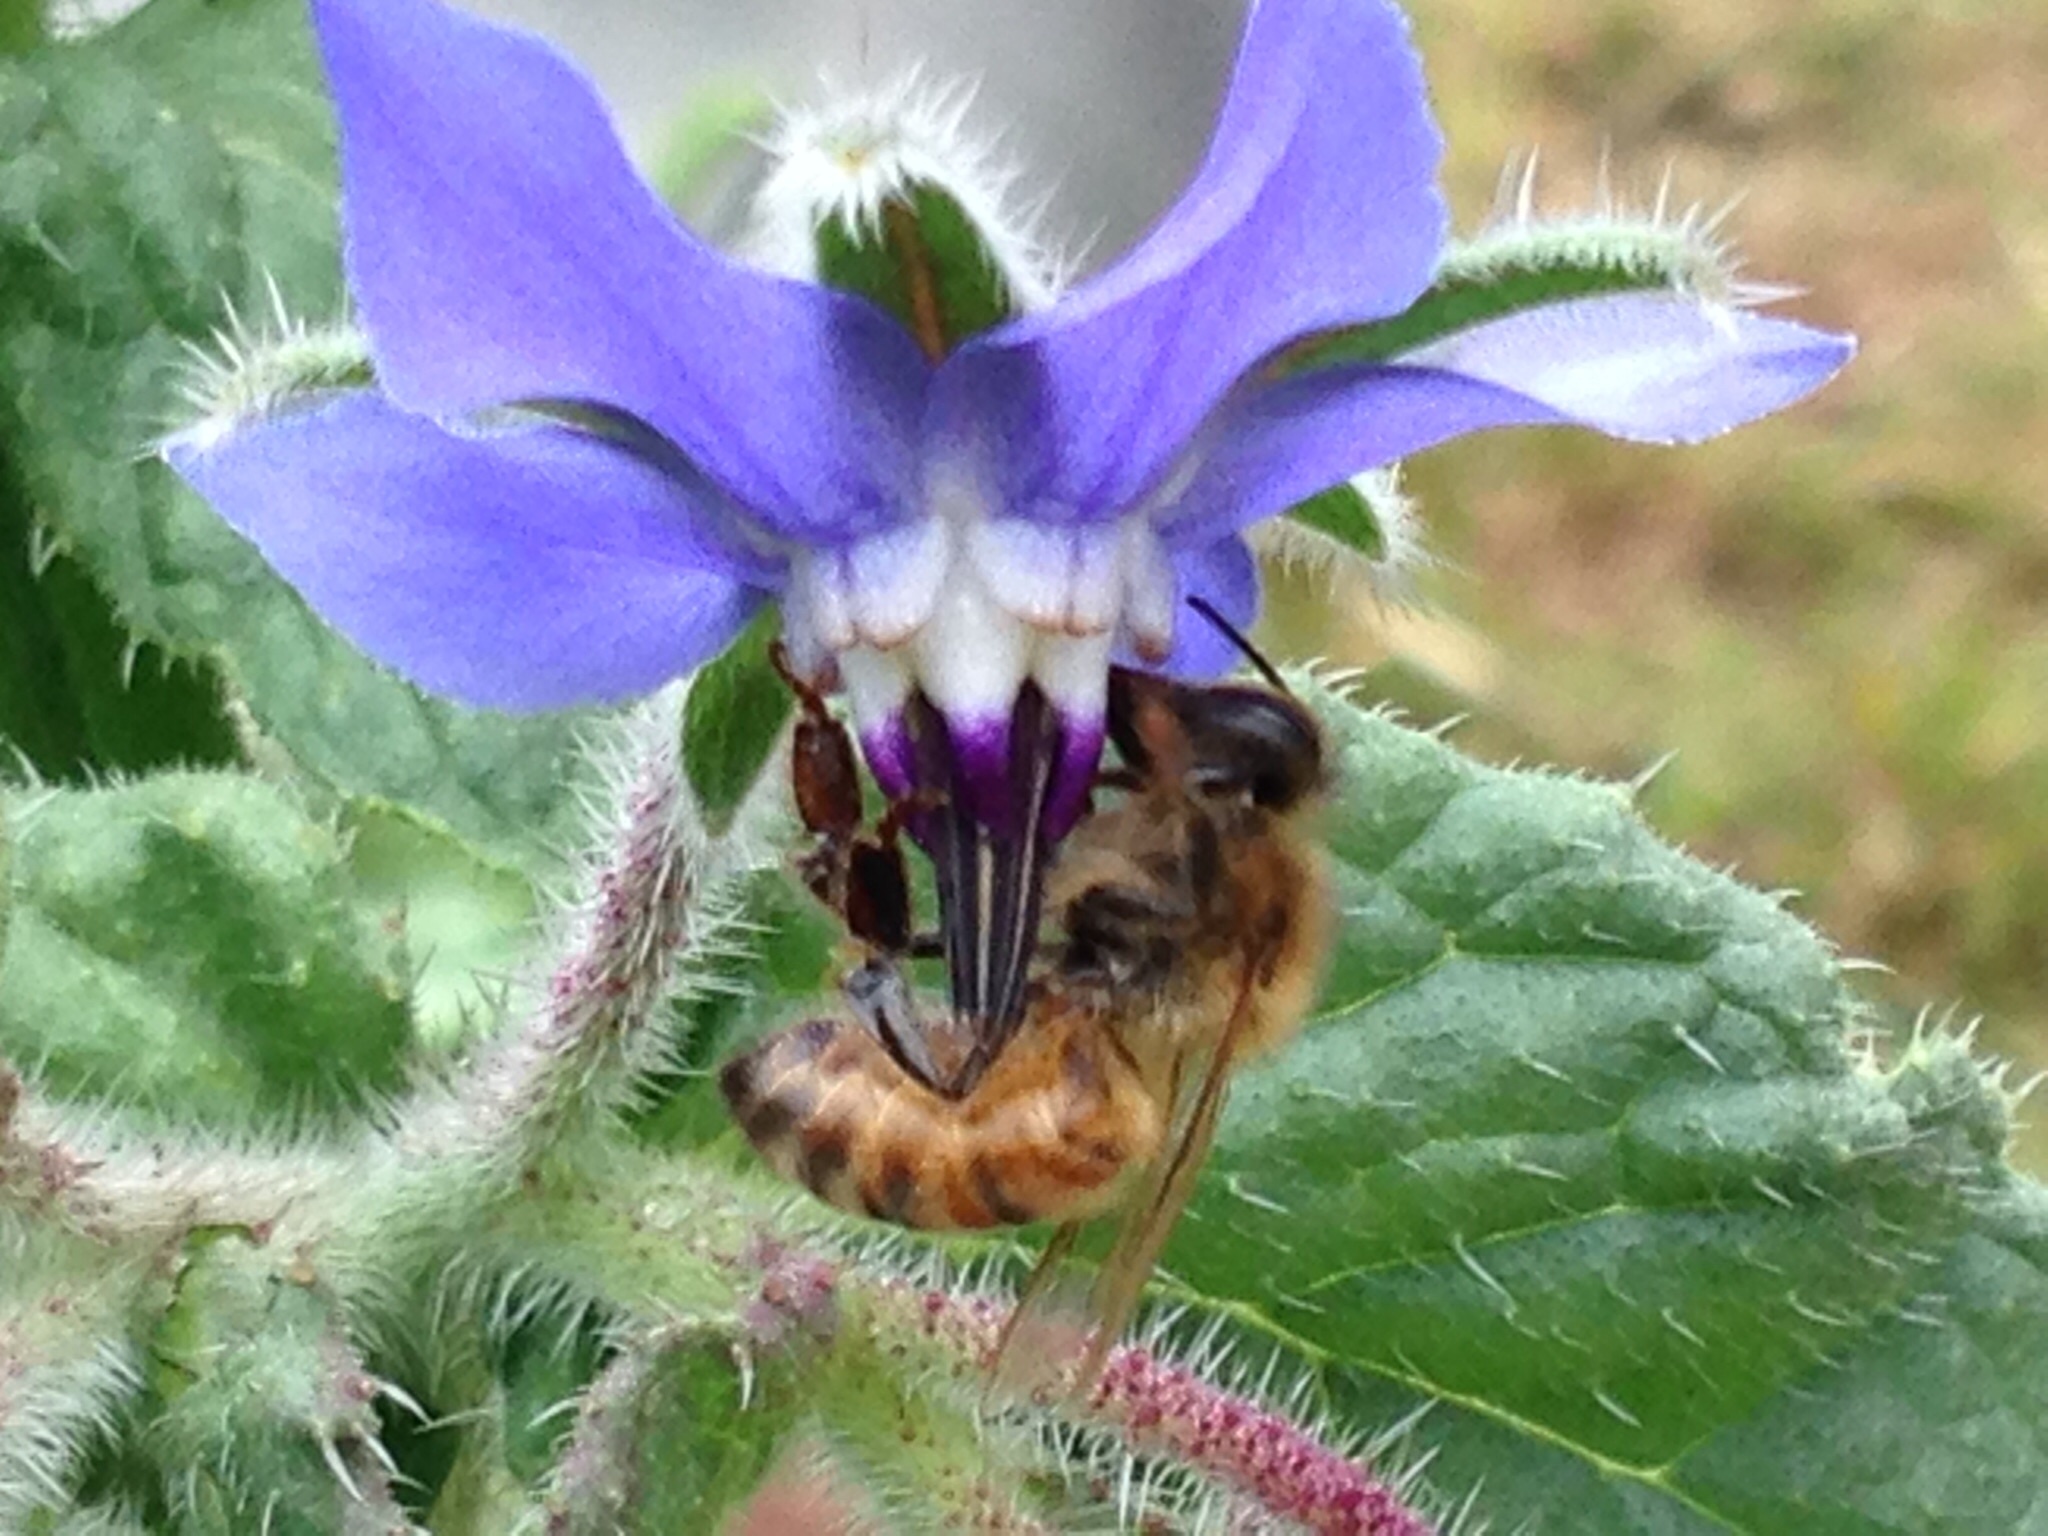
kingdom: Animalia
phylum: Arthropoda
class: Insecta
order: Hymenoptera
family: Apidae
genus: Apis
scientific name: Apis mellifera
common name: Honey bee
